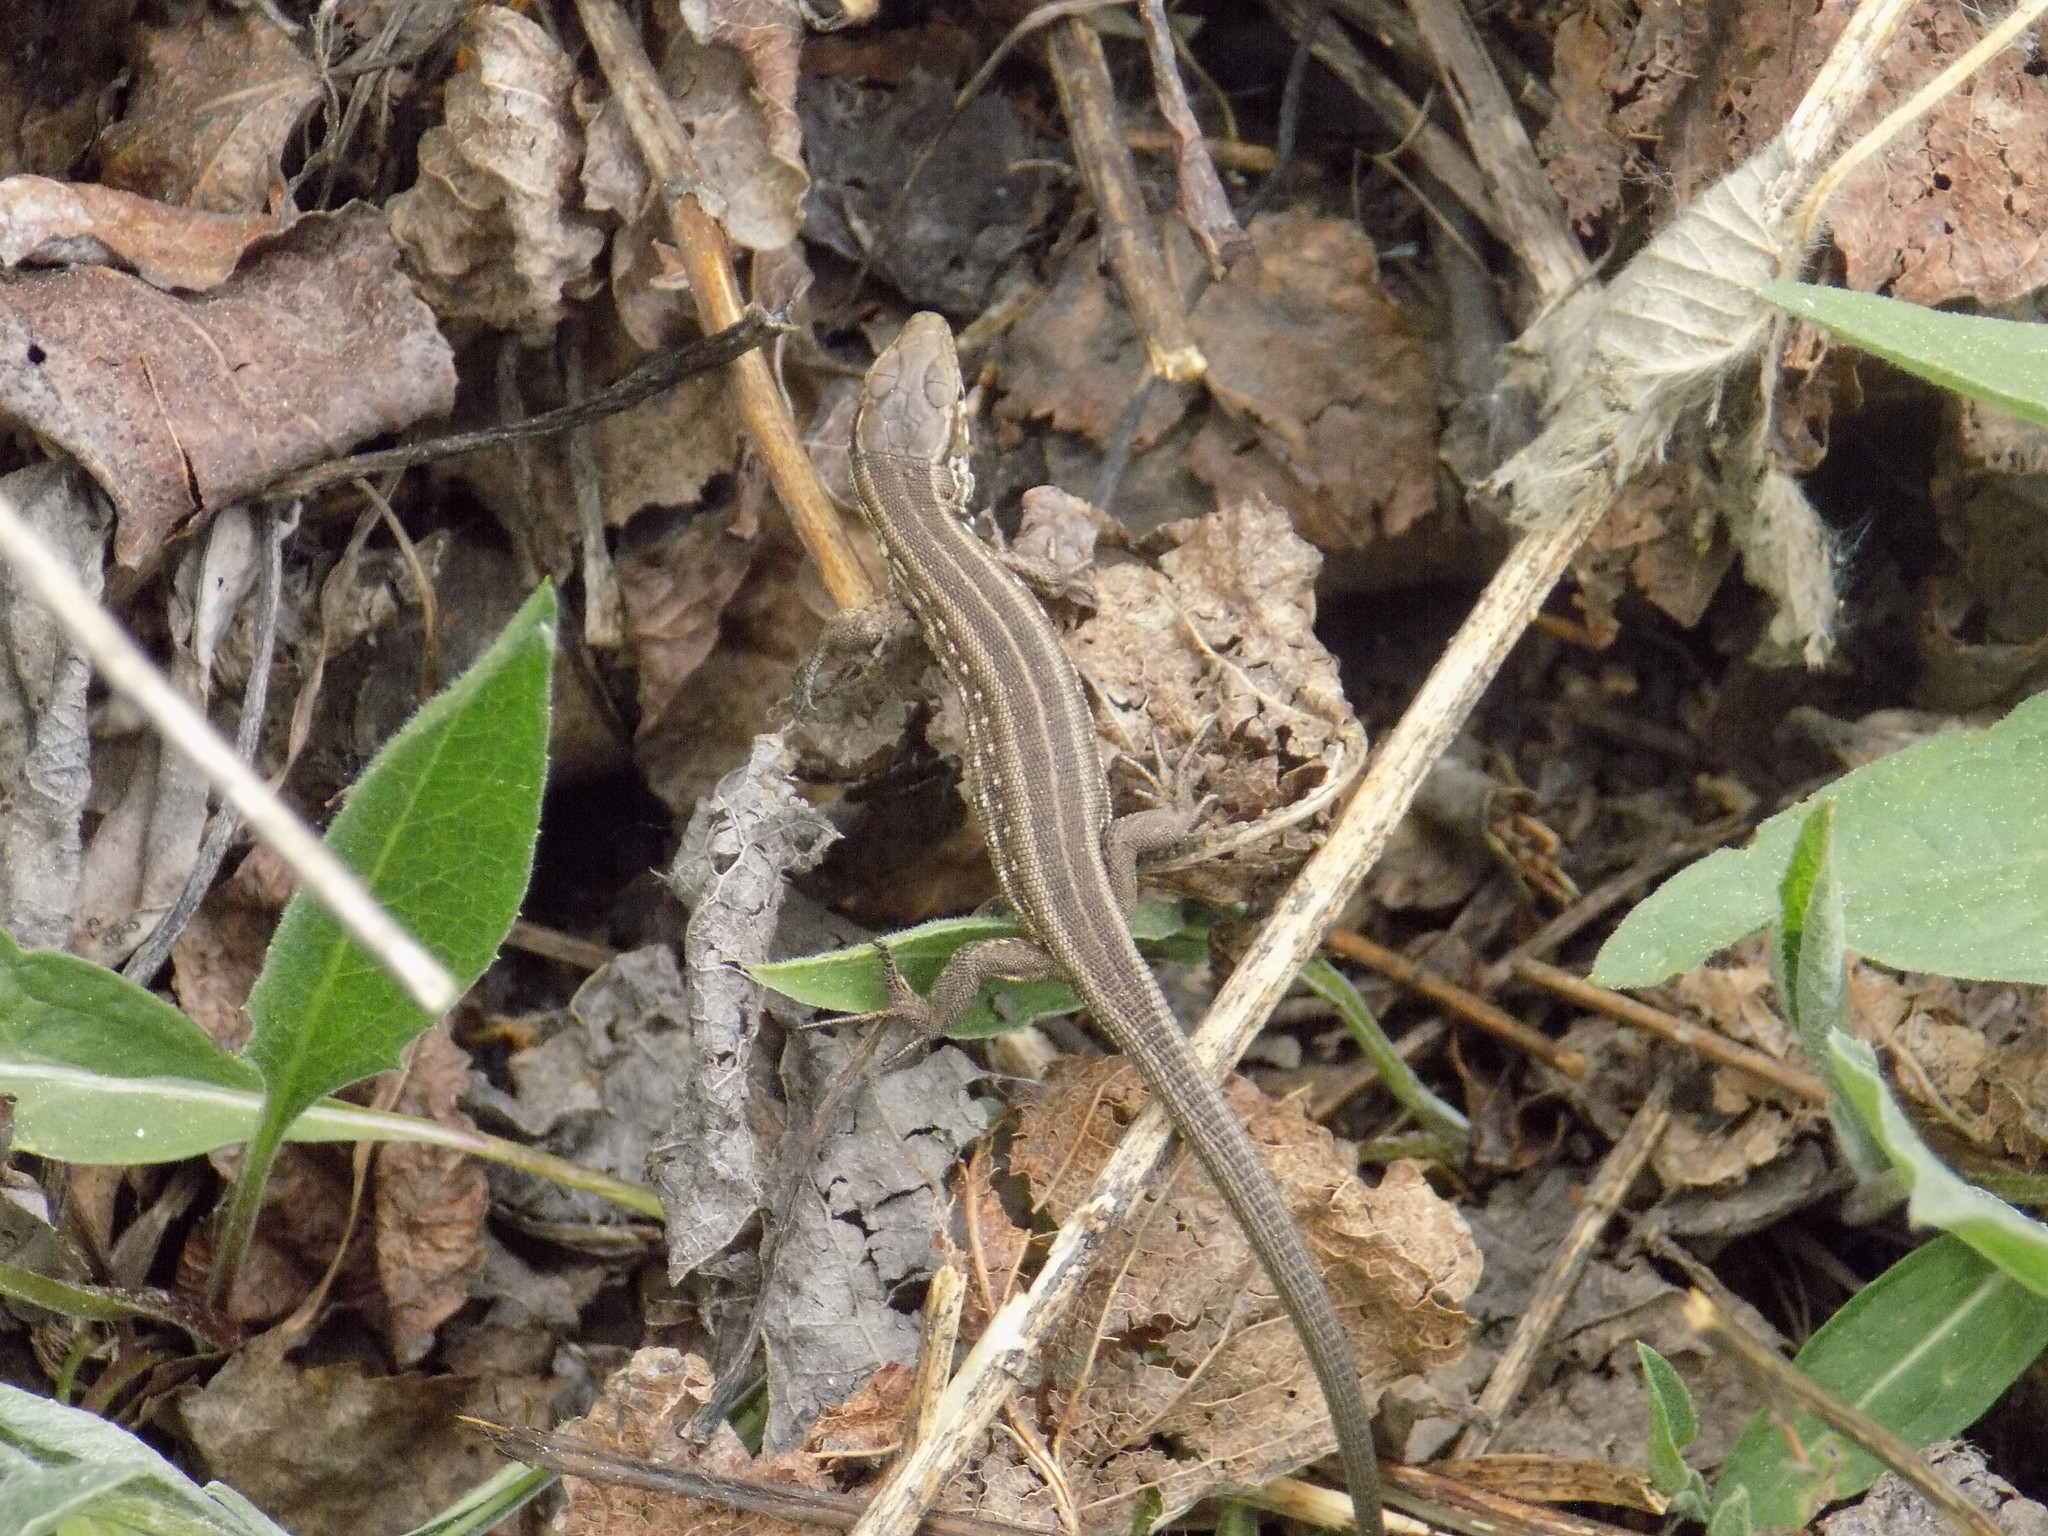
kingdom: Animalia
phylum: Chordata
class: Squamata
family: Lacertidae
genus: Lacerta
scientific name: Lacerta agilis
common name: Sand lizard
